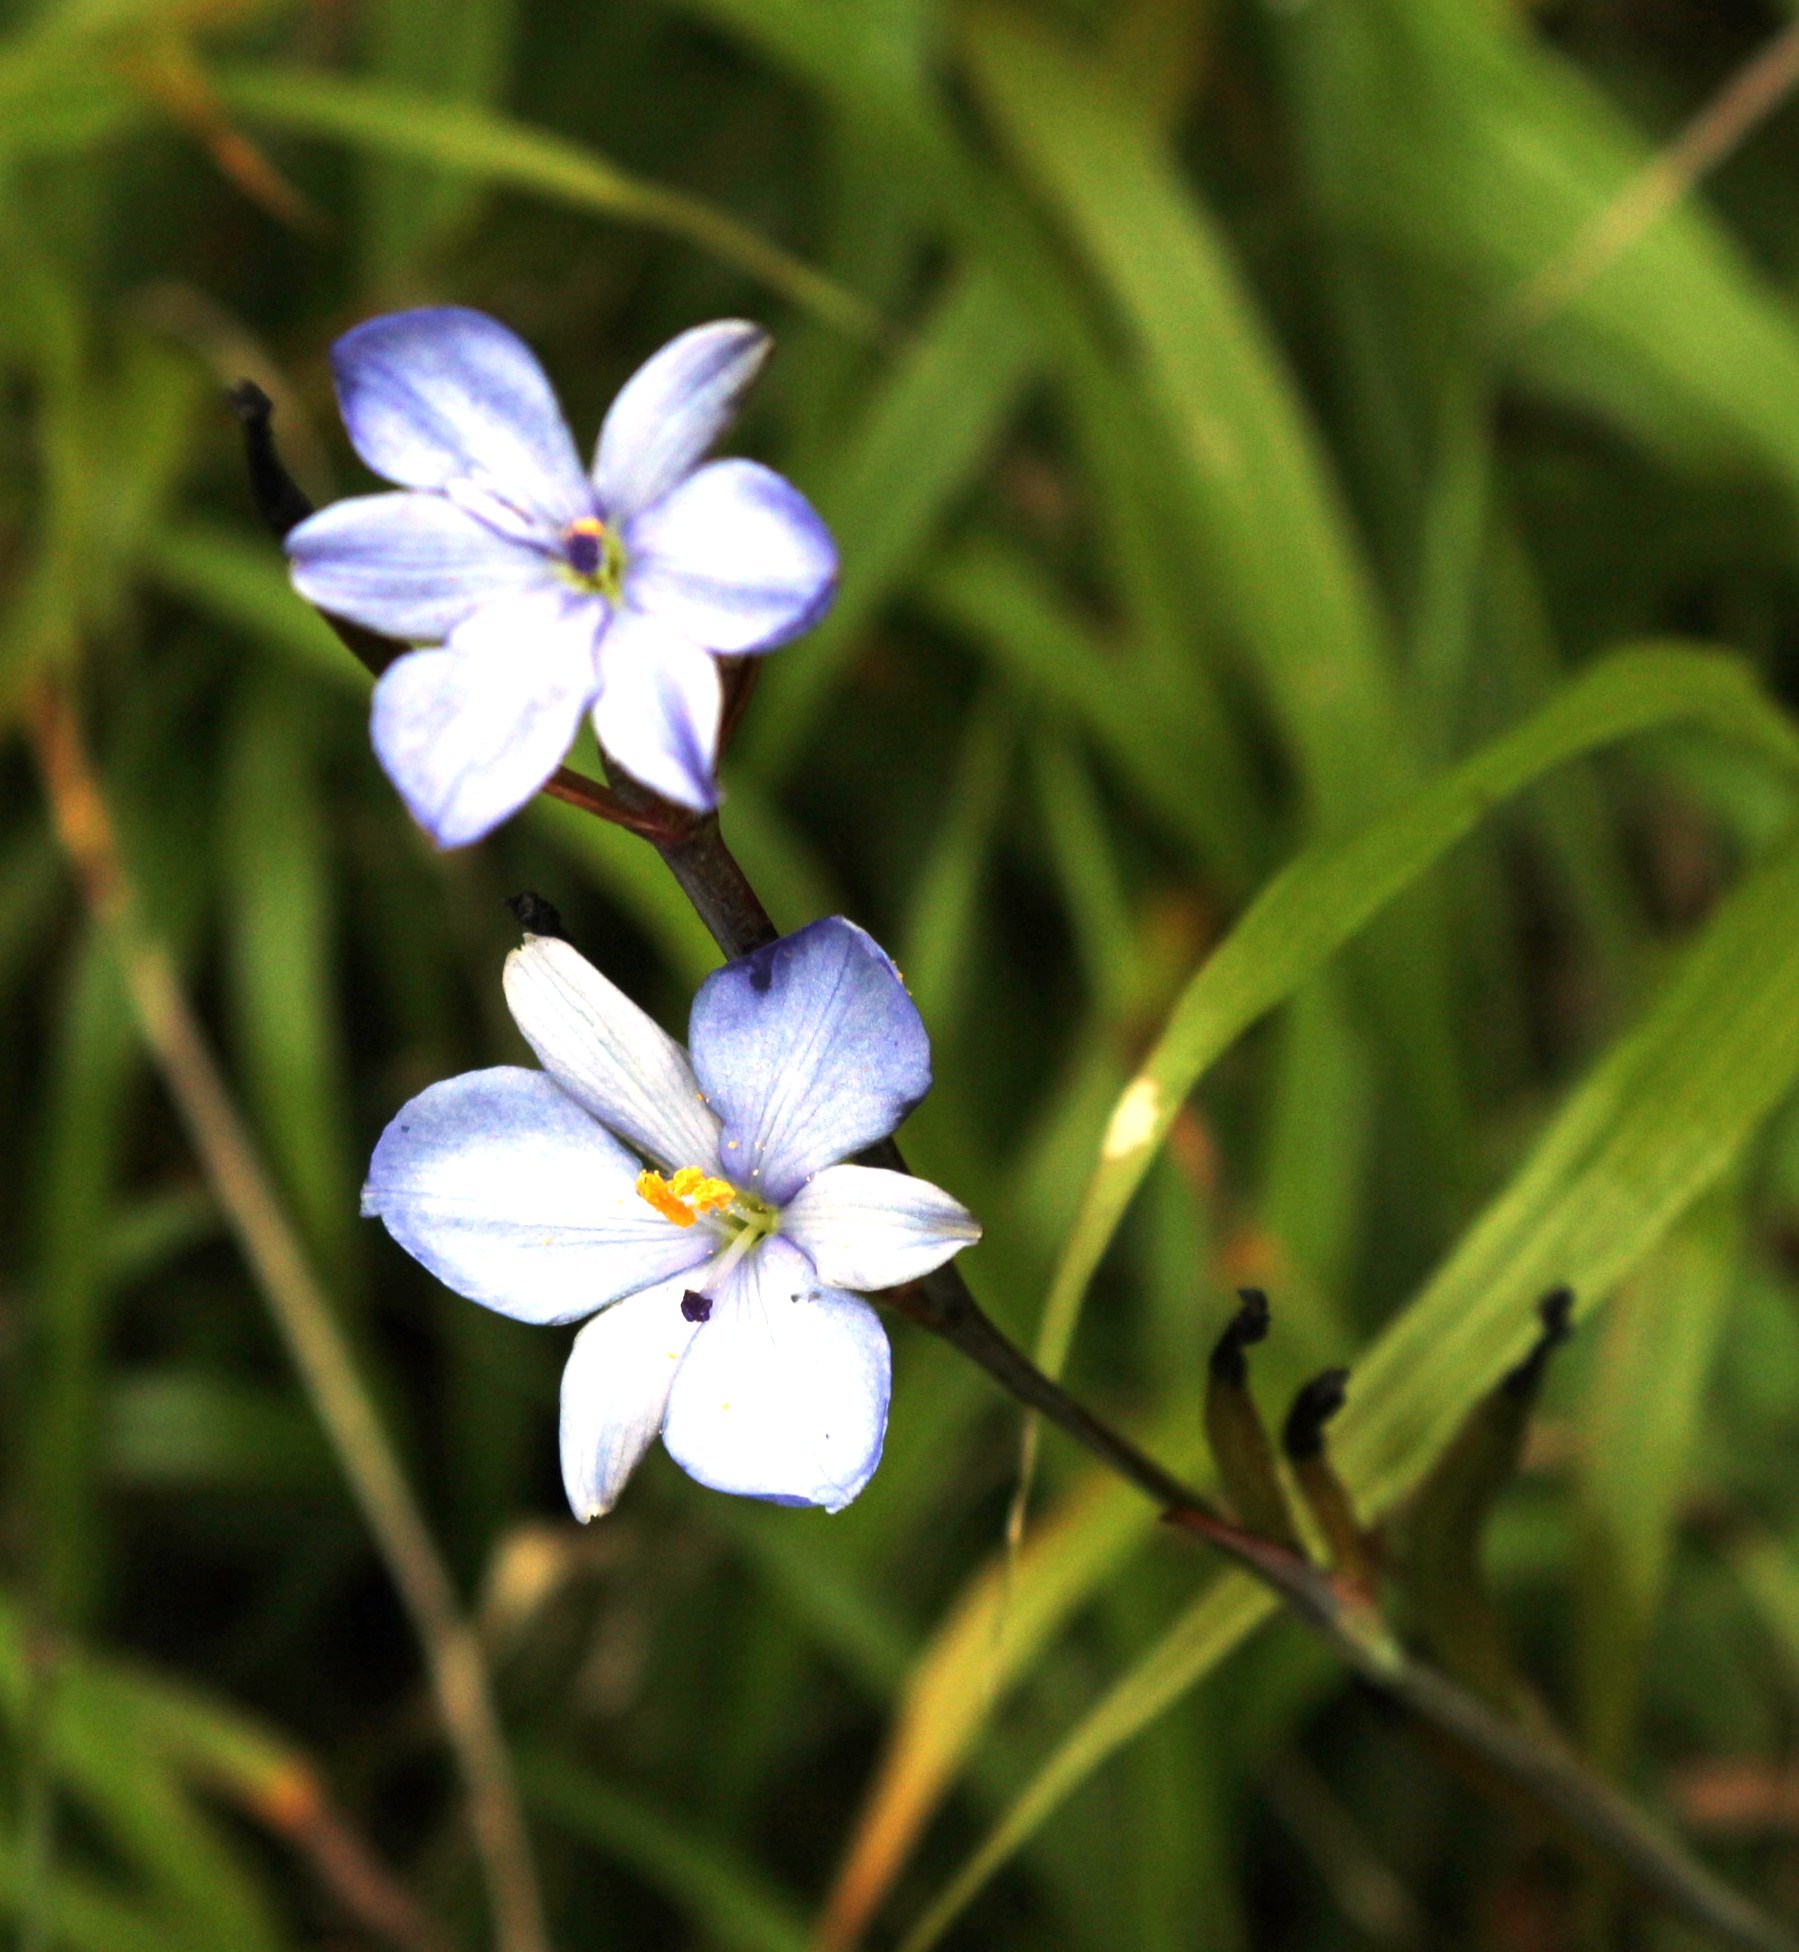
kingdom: Plantae
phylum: Tracheophyta
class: Liliopsida
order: Asparagales
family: Iridaceae
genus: Aristea
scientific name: Aristea ensifolia
